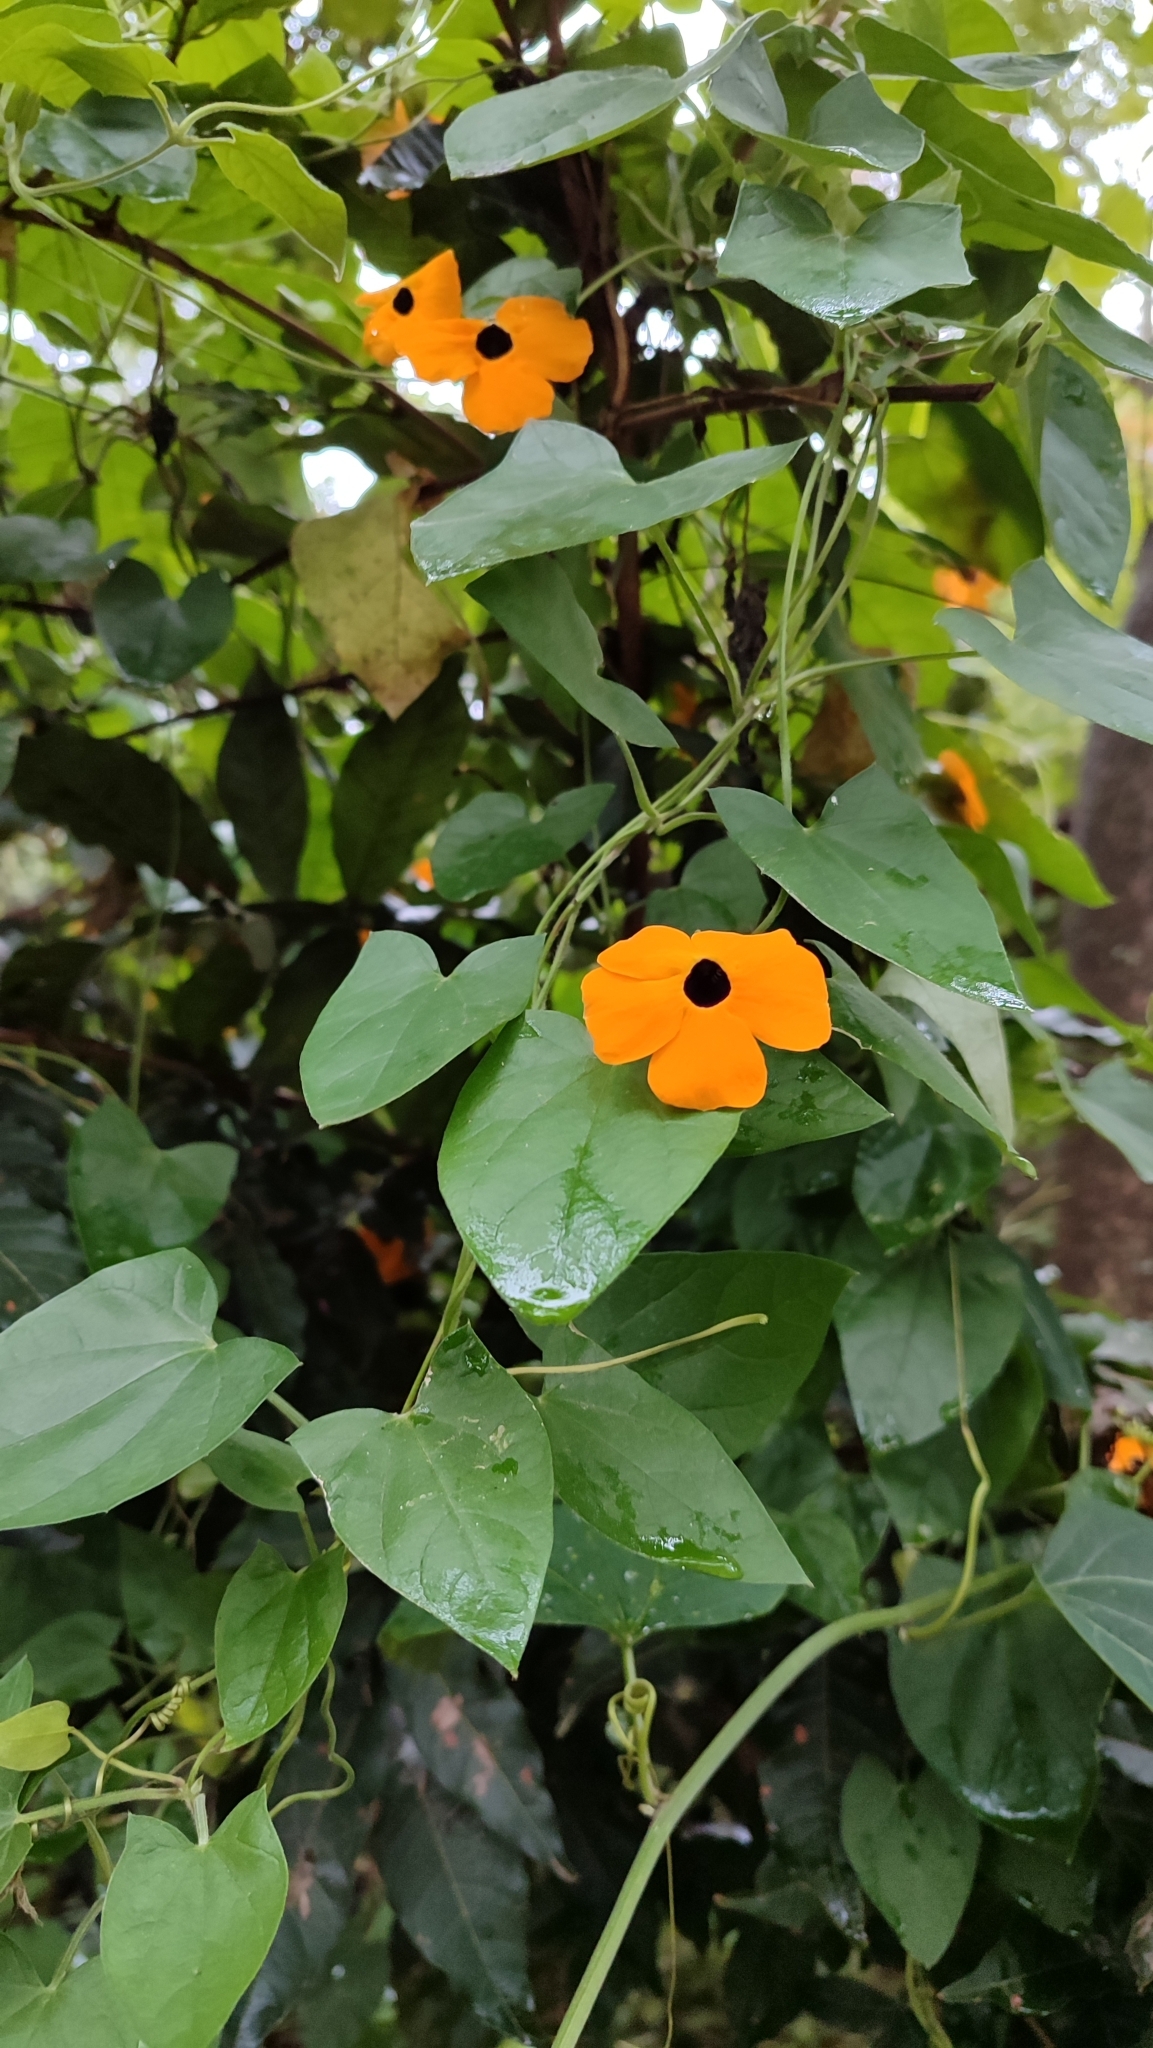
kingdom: Plantae
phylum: Tracheophyta
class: Magnoliopsida
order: Lamiales
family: Acanthaceae
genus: Thunbergia
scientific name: Thunbergia alata
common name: Blackeyed susan vine
